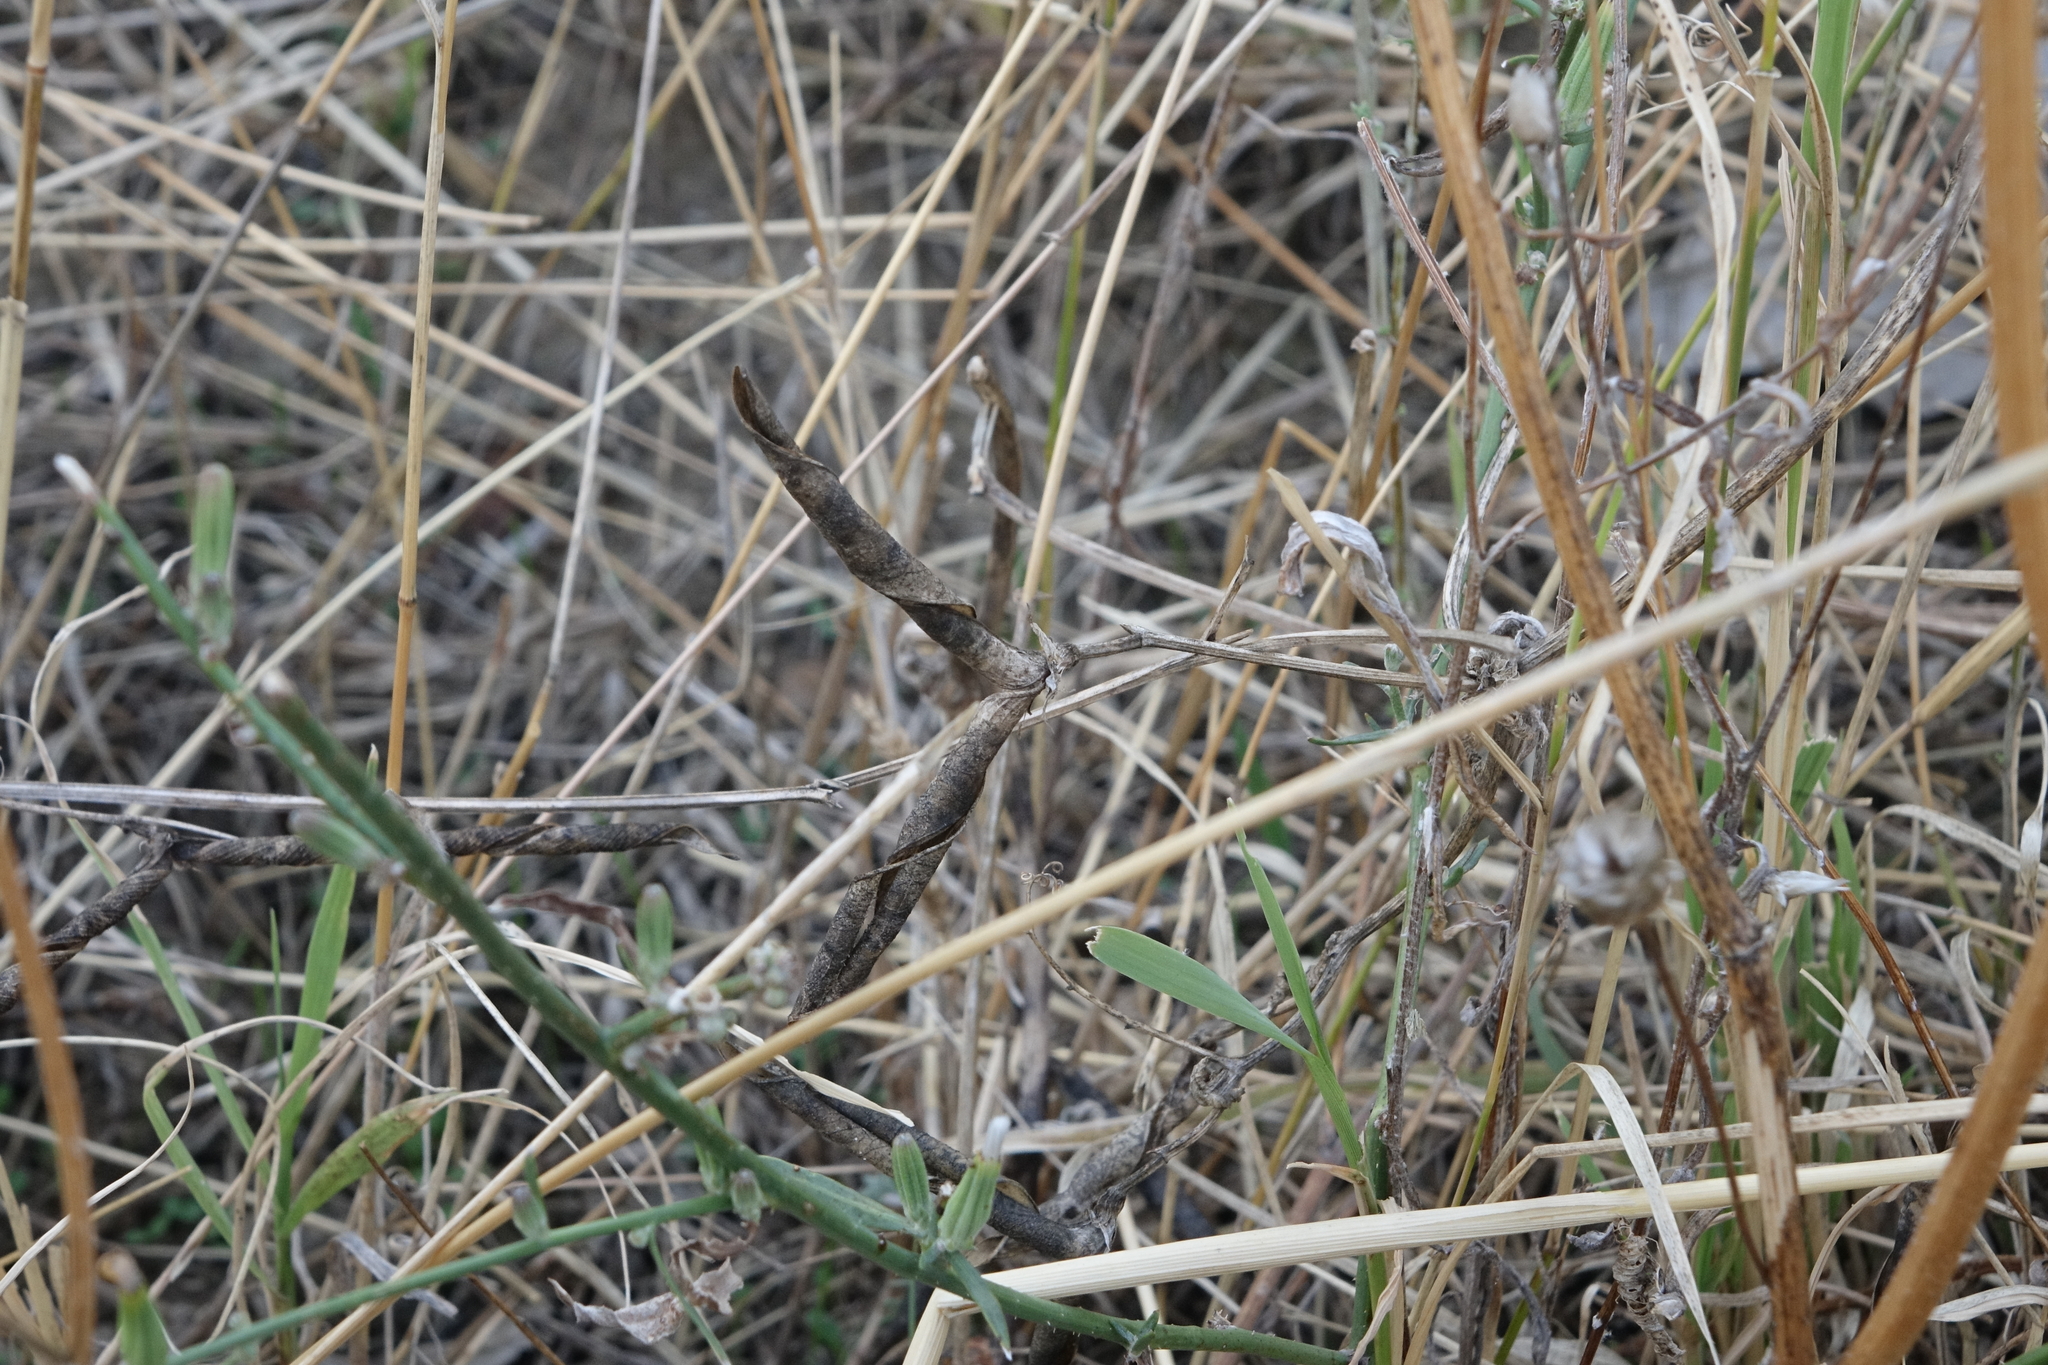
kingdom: Plantae
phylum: Tracheophyta
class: Magnoliopsida
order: Fabales
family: Fabaceae
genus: Lathyrus
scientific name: Lathyrus oleraceus
